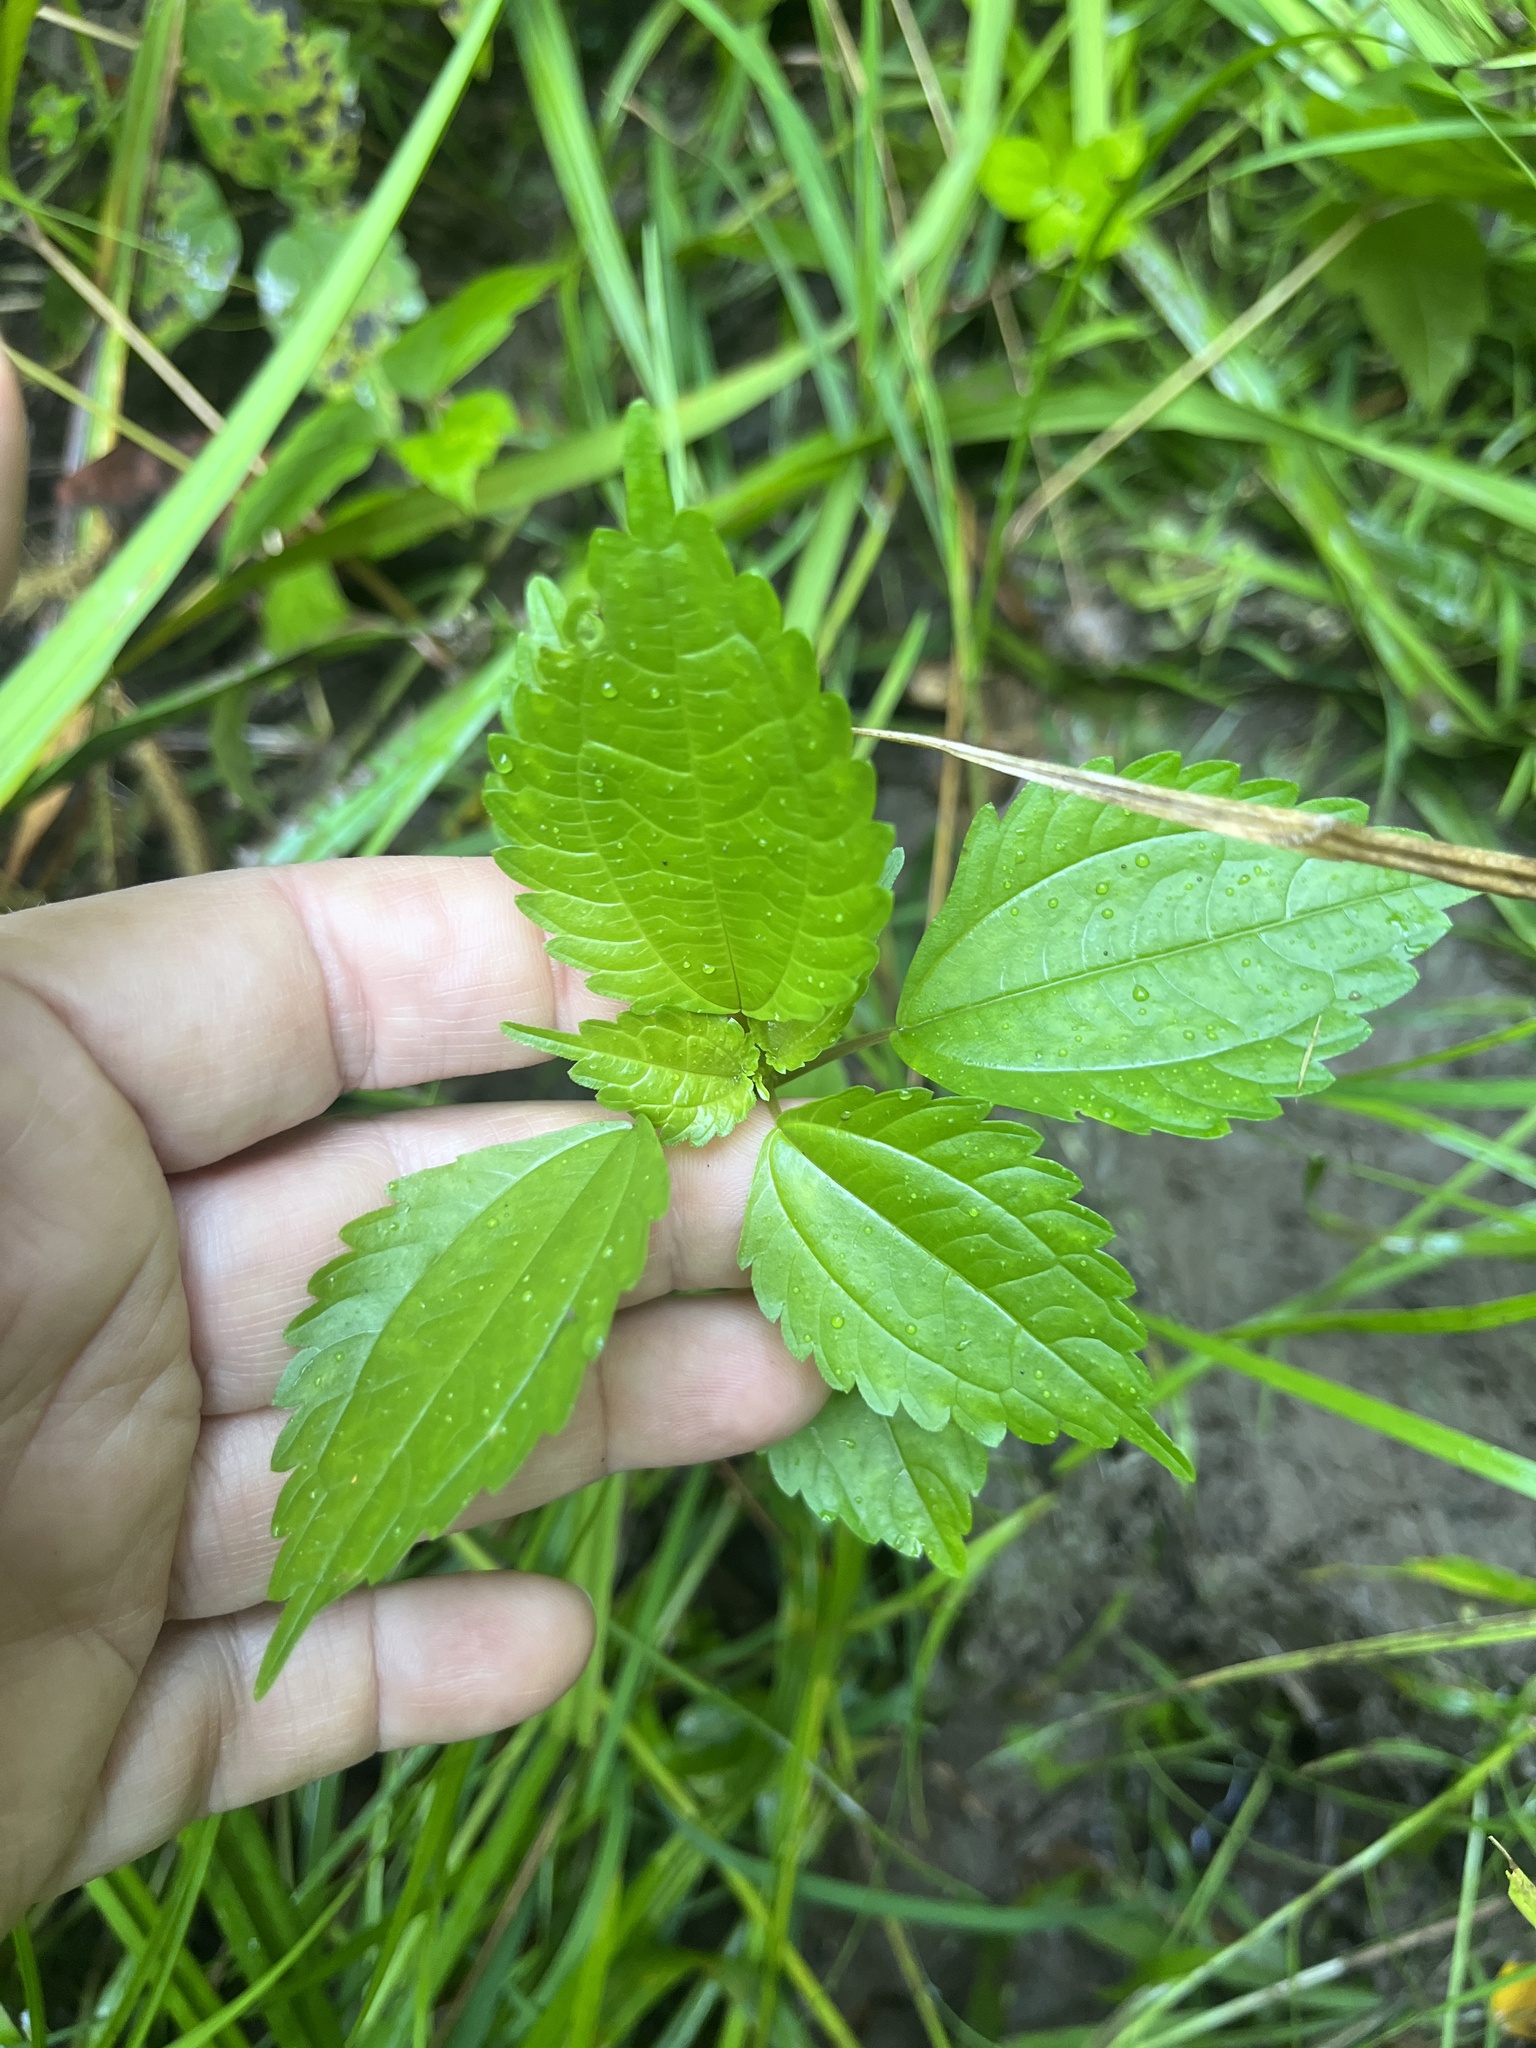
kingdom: Plantae
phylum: Tracheophyta
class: Magnoliopsida
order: Rosales
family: Urticaceae
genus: Pilea
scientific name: Pilea pumila
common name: Clearweed
